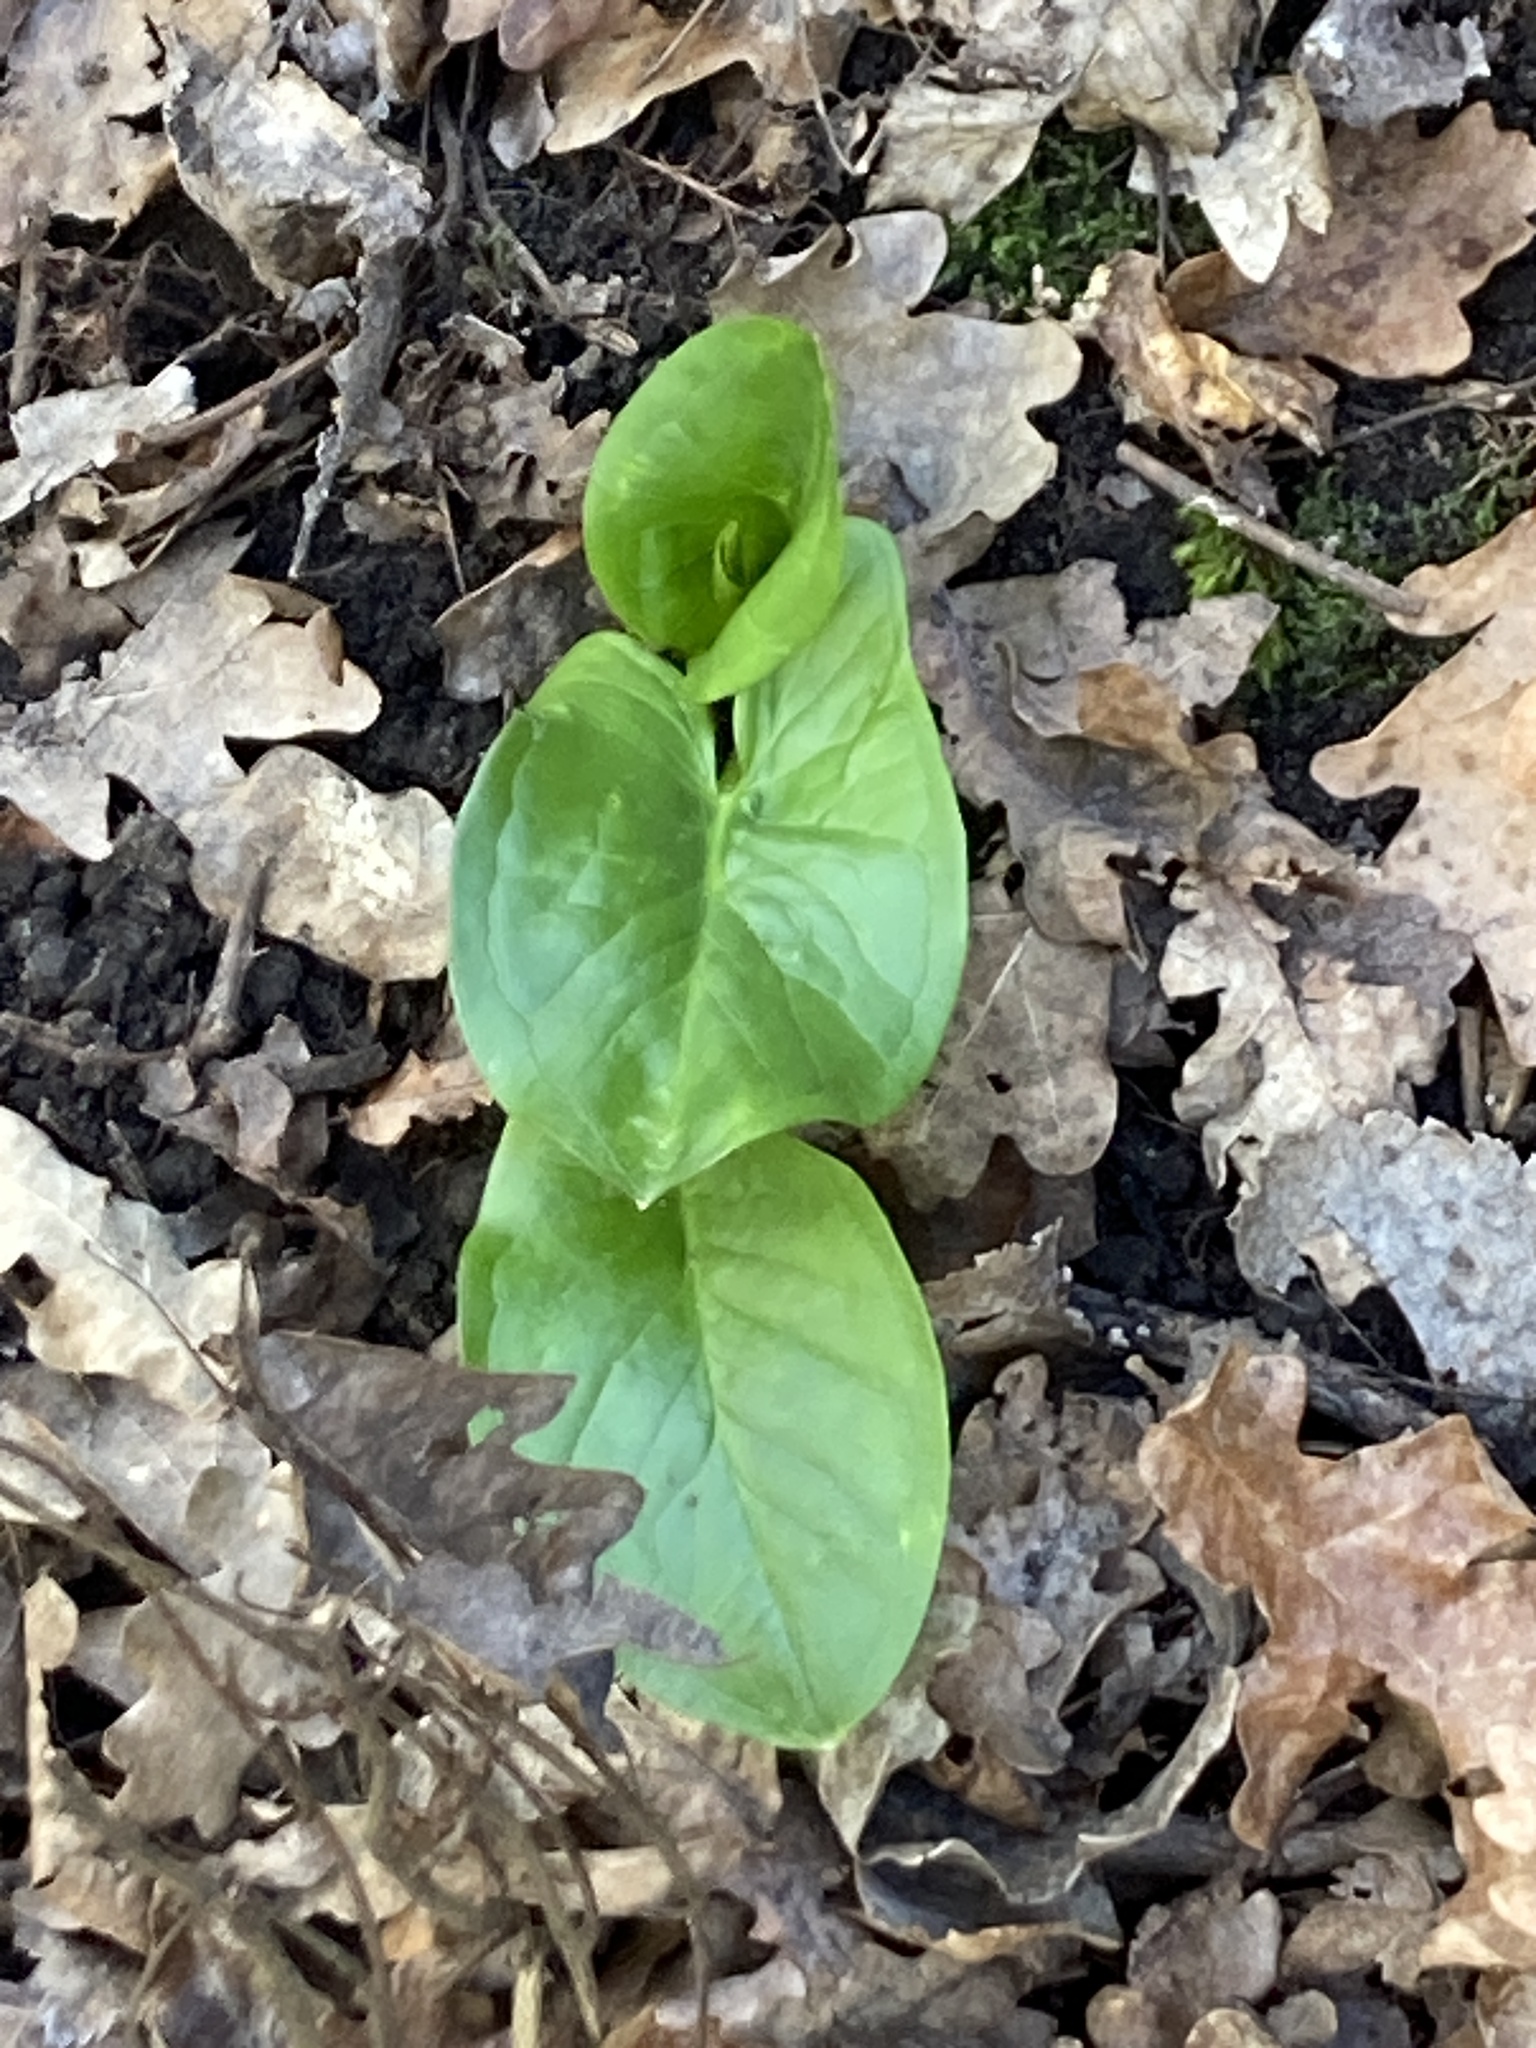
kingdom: Plantae
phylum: Tracheophyta
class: Liliopsida
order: Alismatales
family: Araceae
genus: Arum
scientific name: Arum maculatum
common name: Lords-and-ladies
